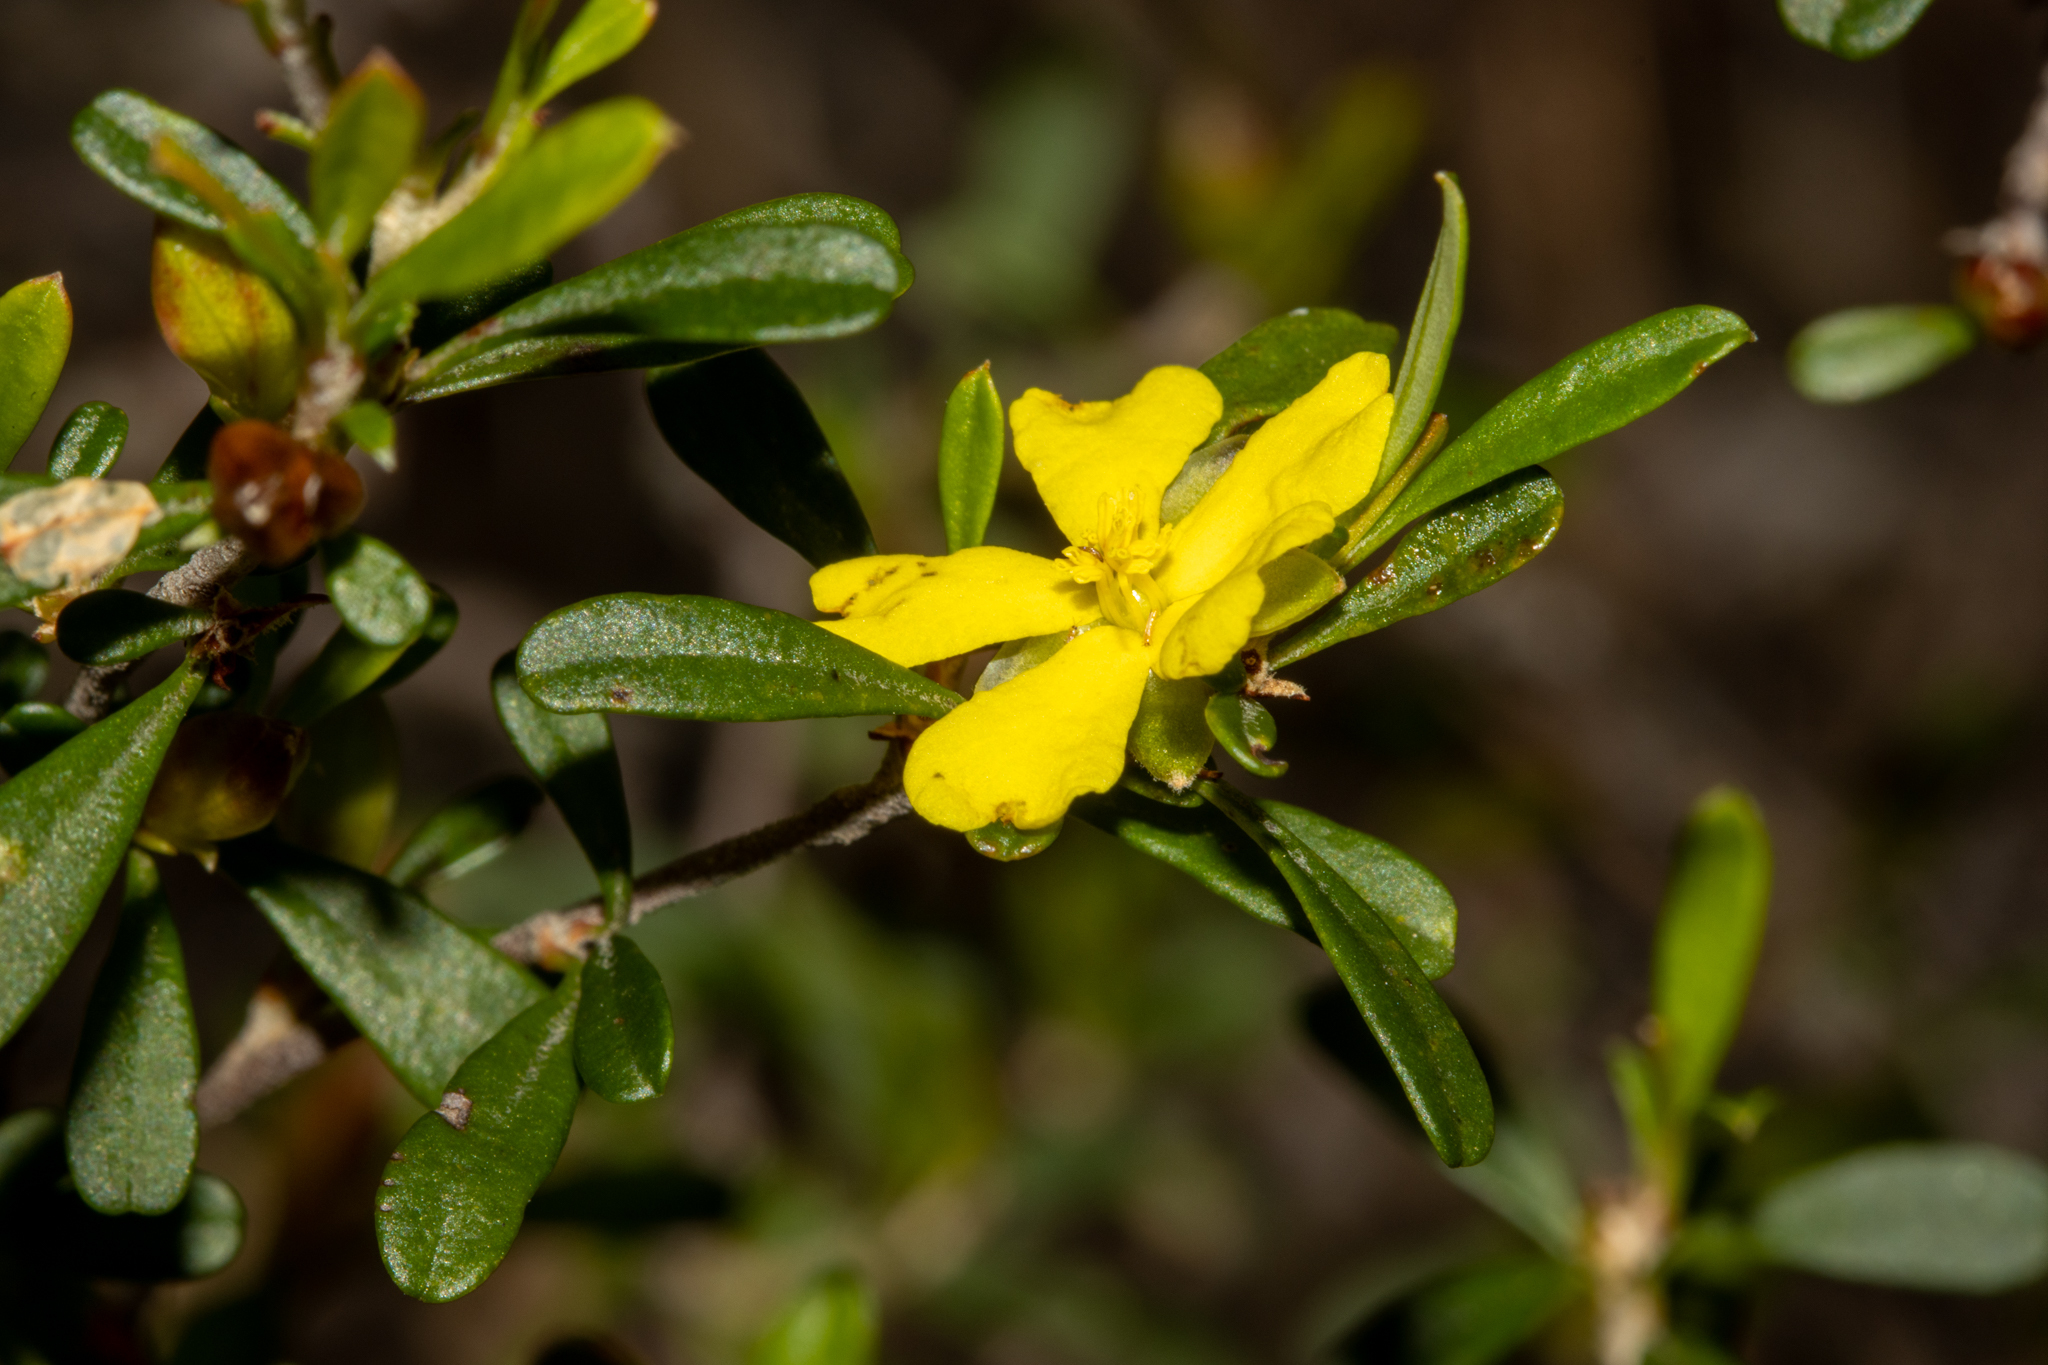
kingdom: Plantae
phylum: Tracheophyta
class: Magnoliopsida
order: Dilleniales
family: Dilleniaceae
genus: Hibbertia
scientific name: Hibbertia monogyna
